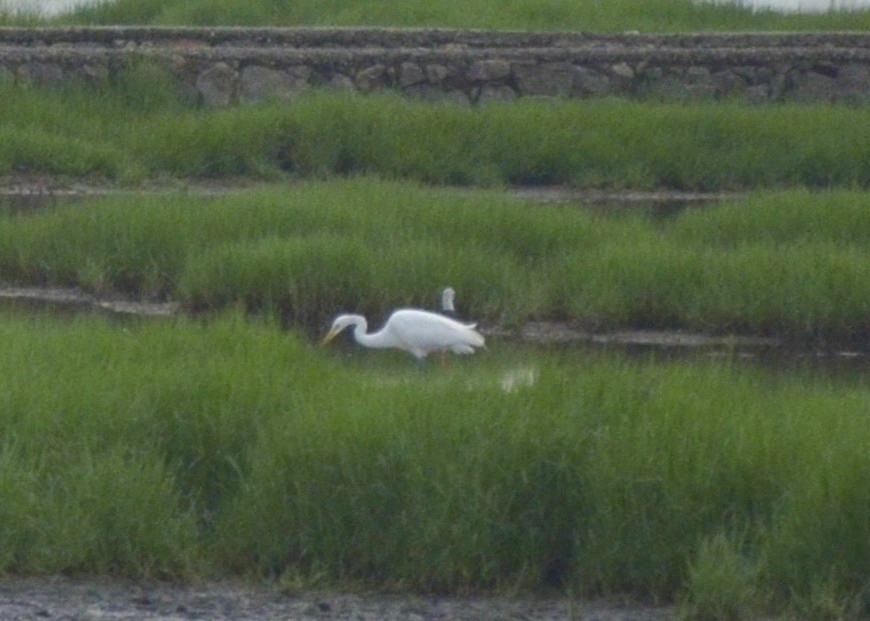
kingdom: Animalia
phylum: Chordata
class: Aves
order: Pelecaniformes
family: Ardeidae
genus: Ardea
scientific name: Ardea alba
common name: Great egret
